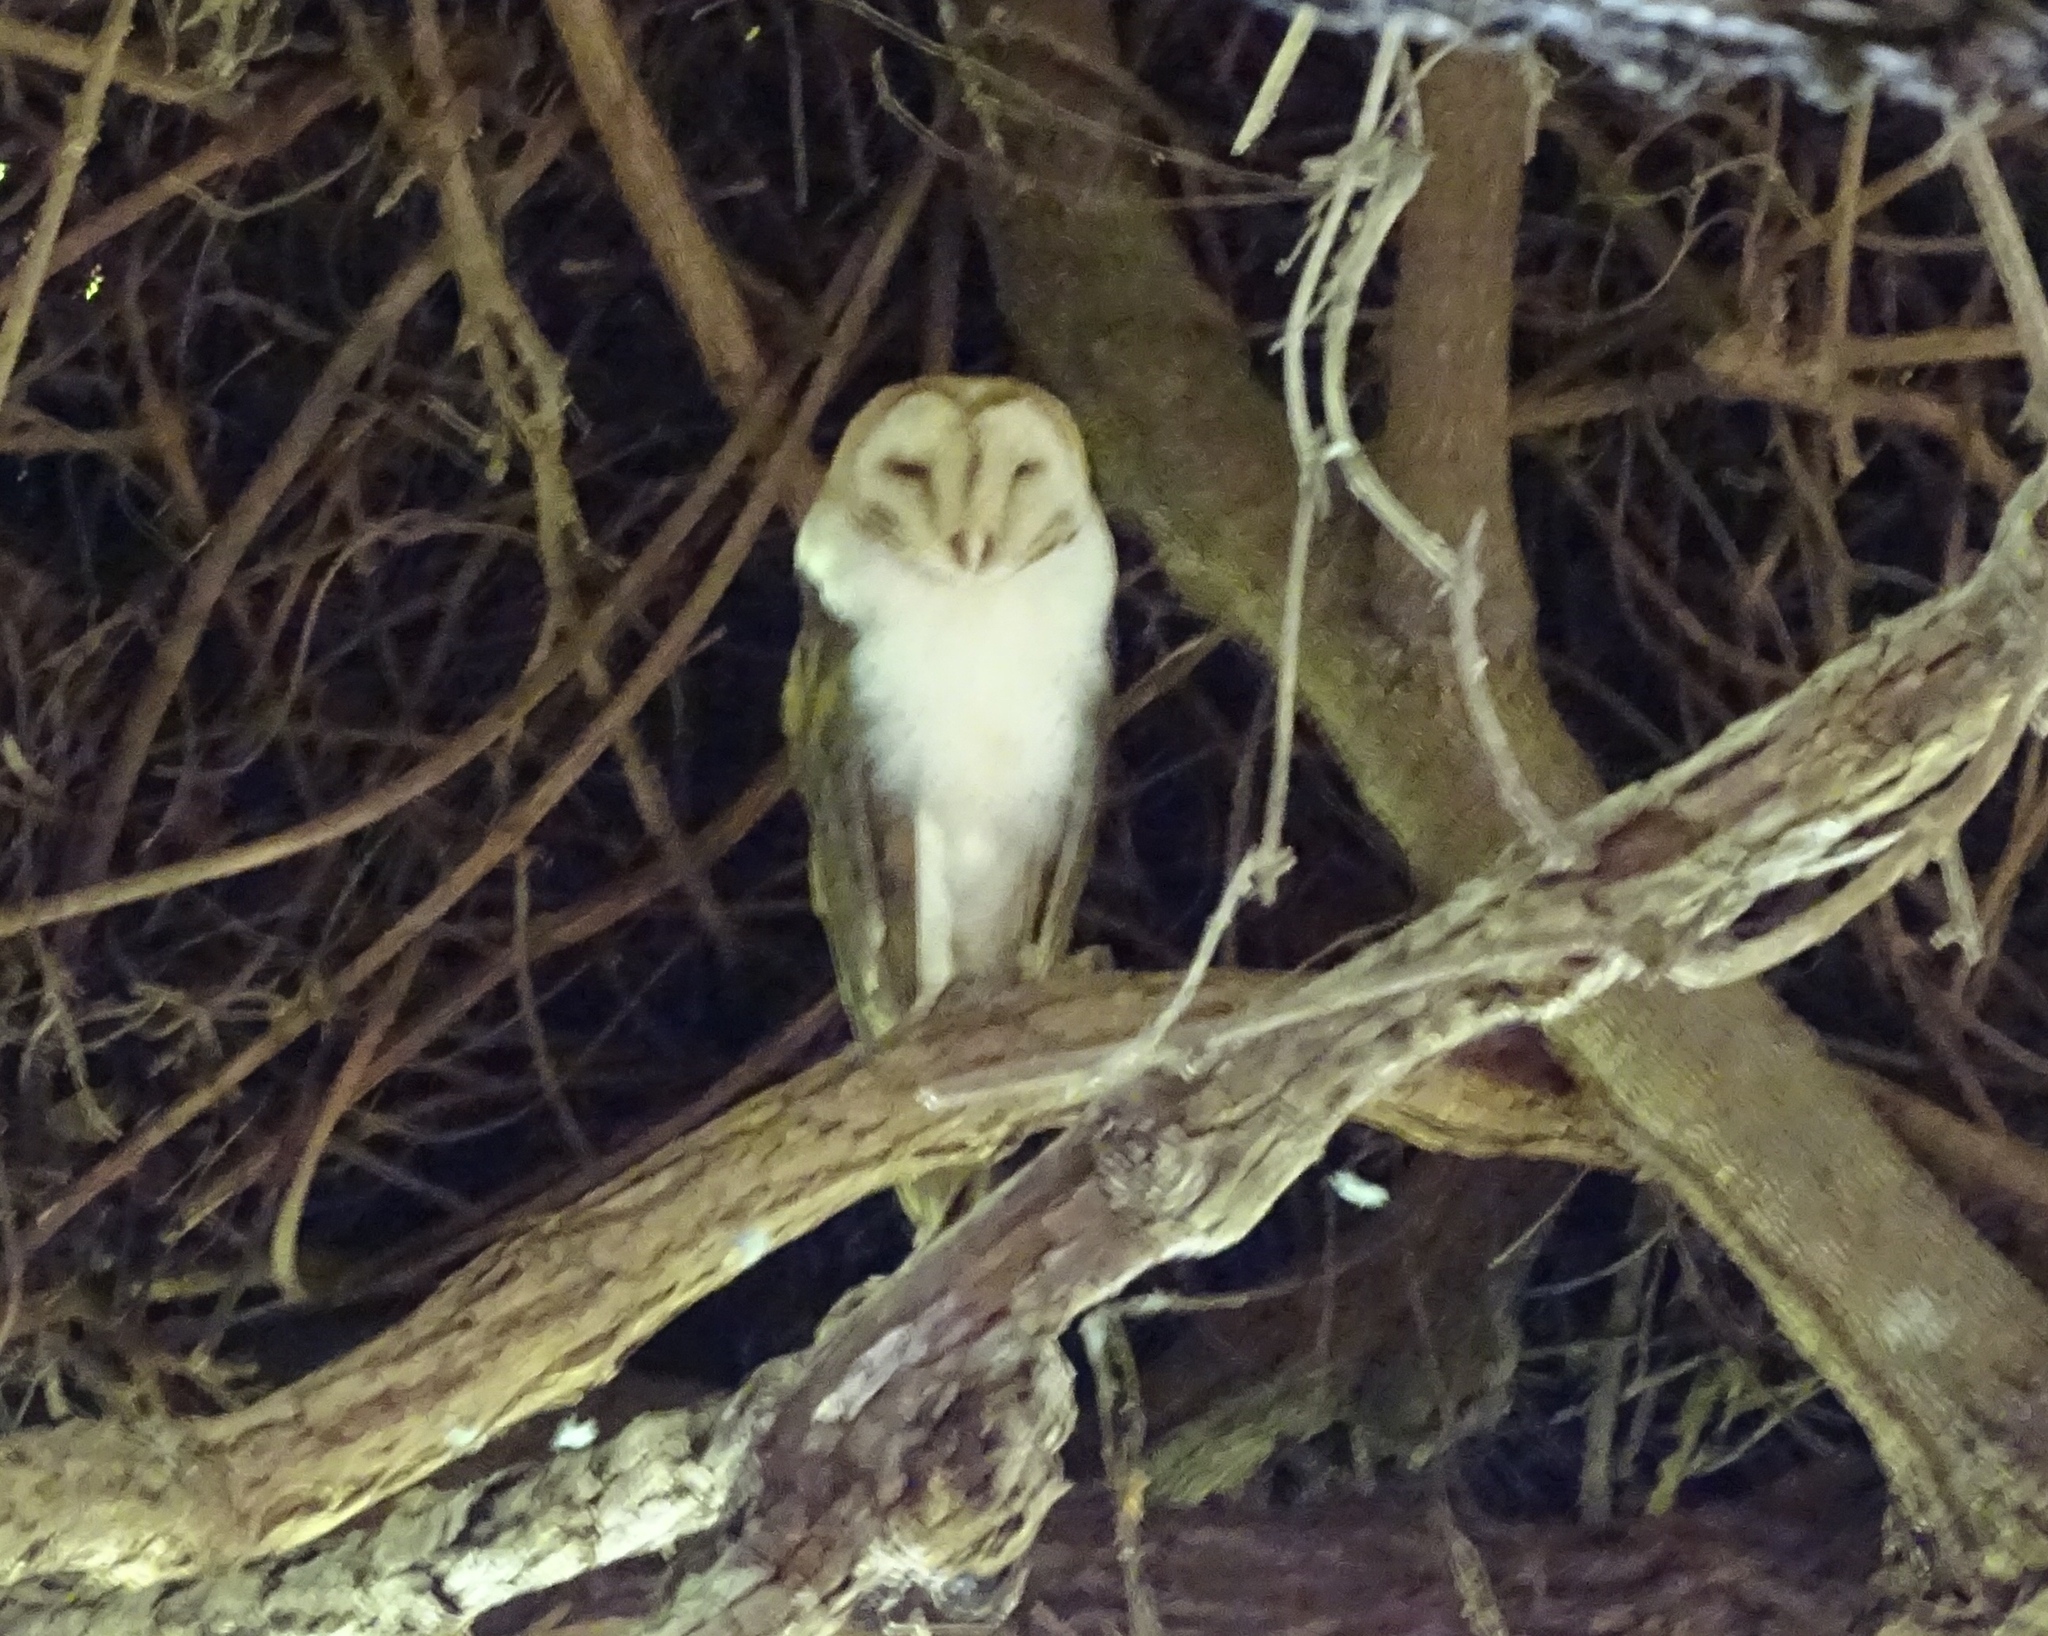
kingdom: Animalia
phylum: Chordata
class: Aves
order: Strigiformes
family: Tytonidae
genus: Tyto
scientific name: Tyto alba
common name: Barn owl
